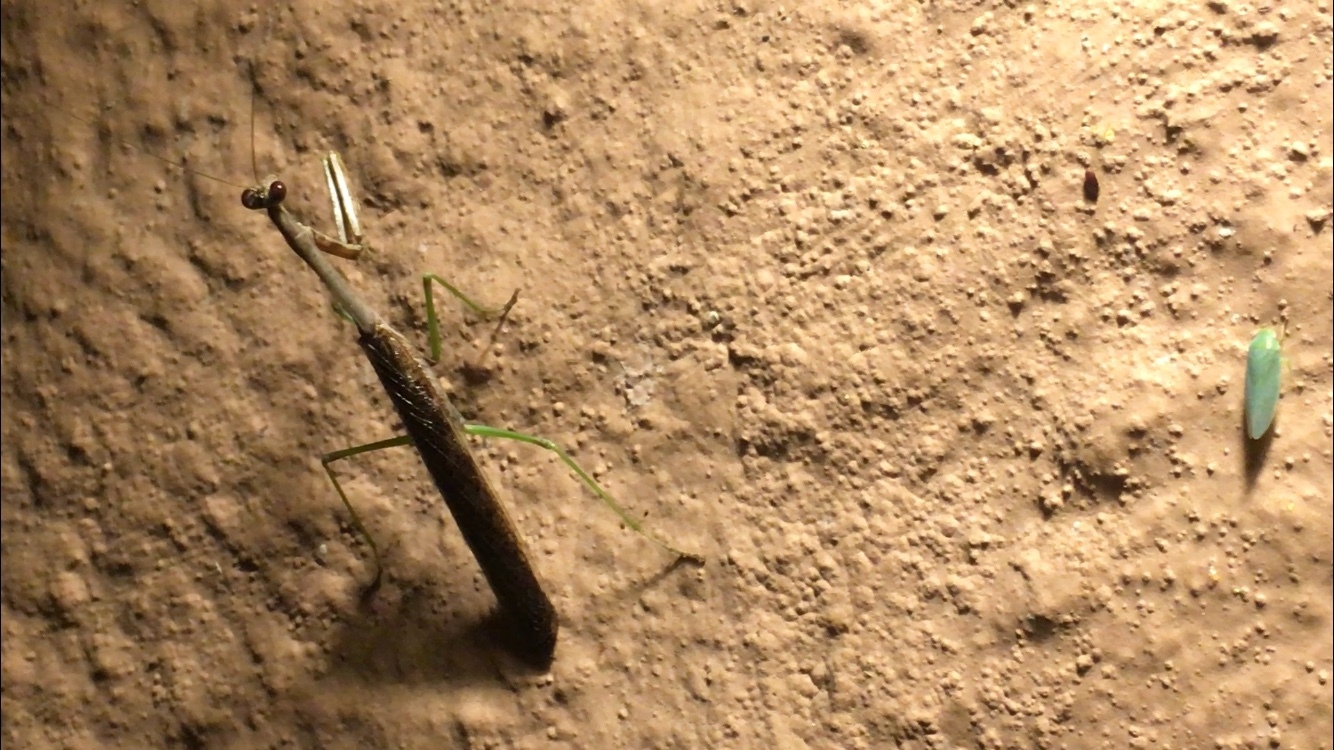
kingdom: Animalia
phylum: Arthropoda
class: Insecta
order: Mantodea
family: Mantidae
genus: Stagmomantis
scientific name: Stagmomantis carolina
